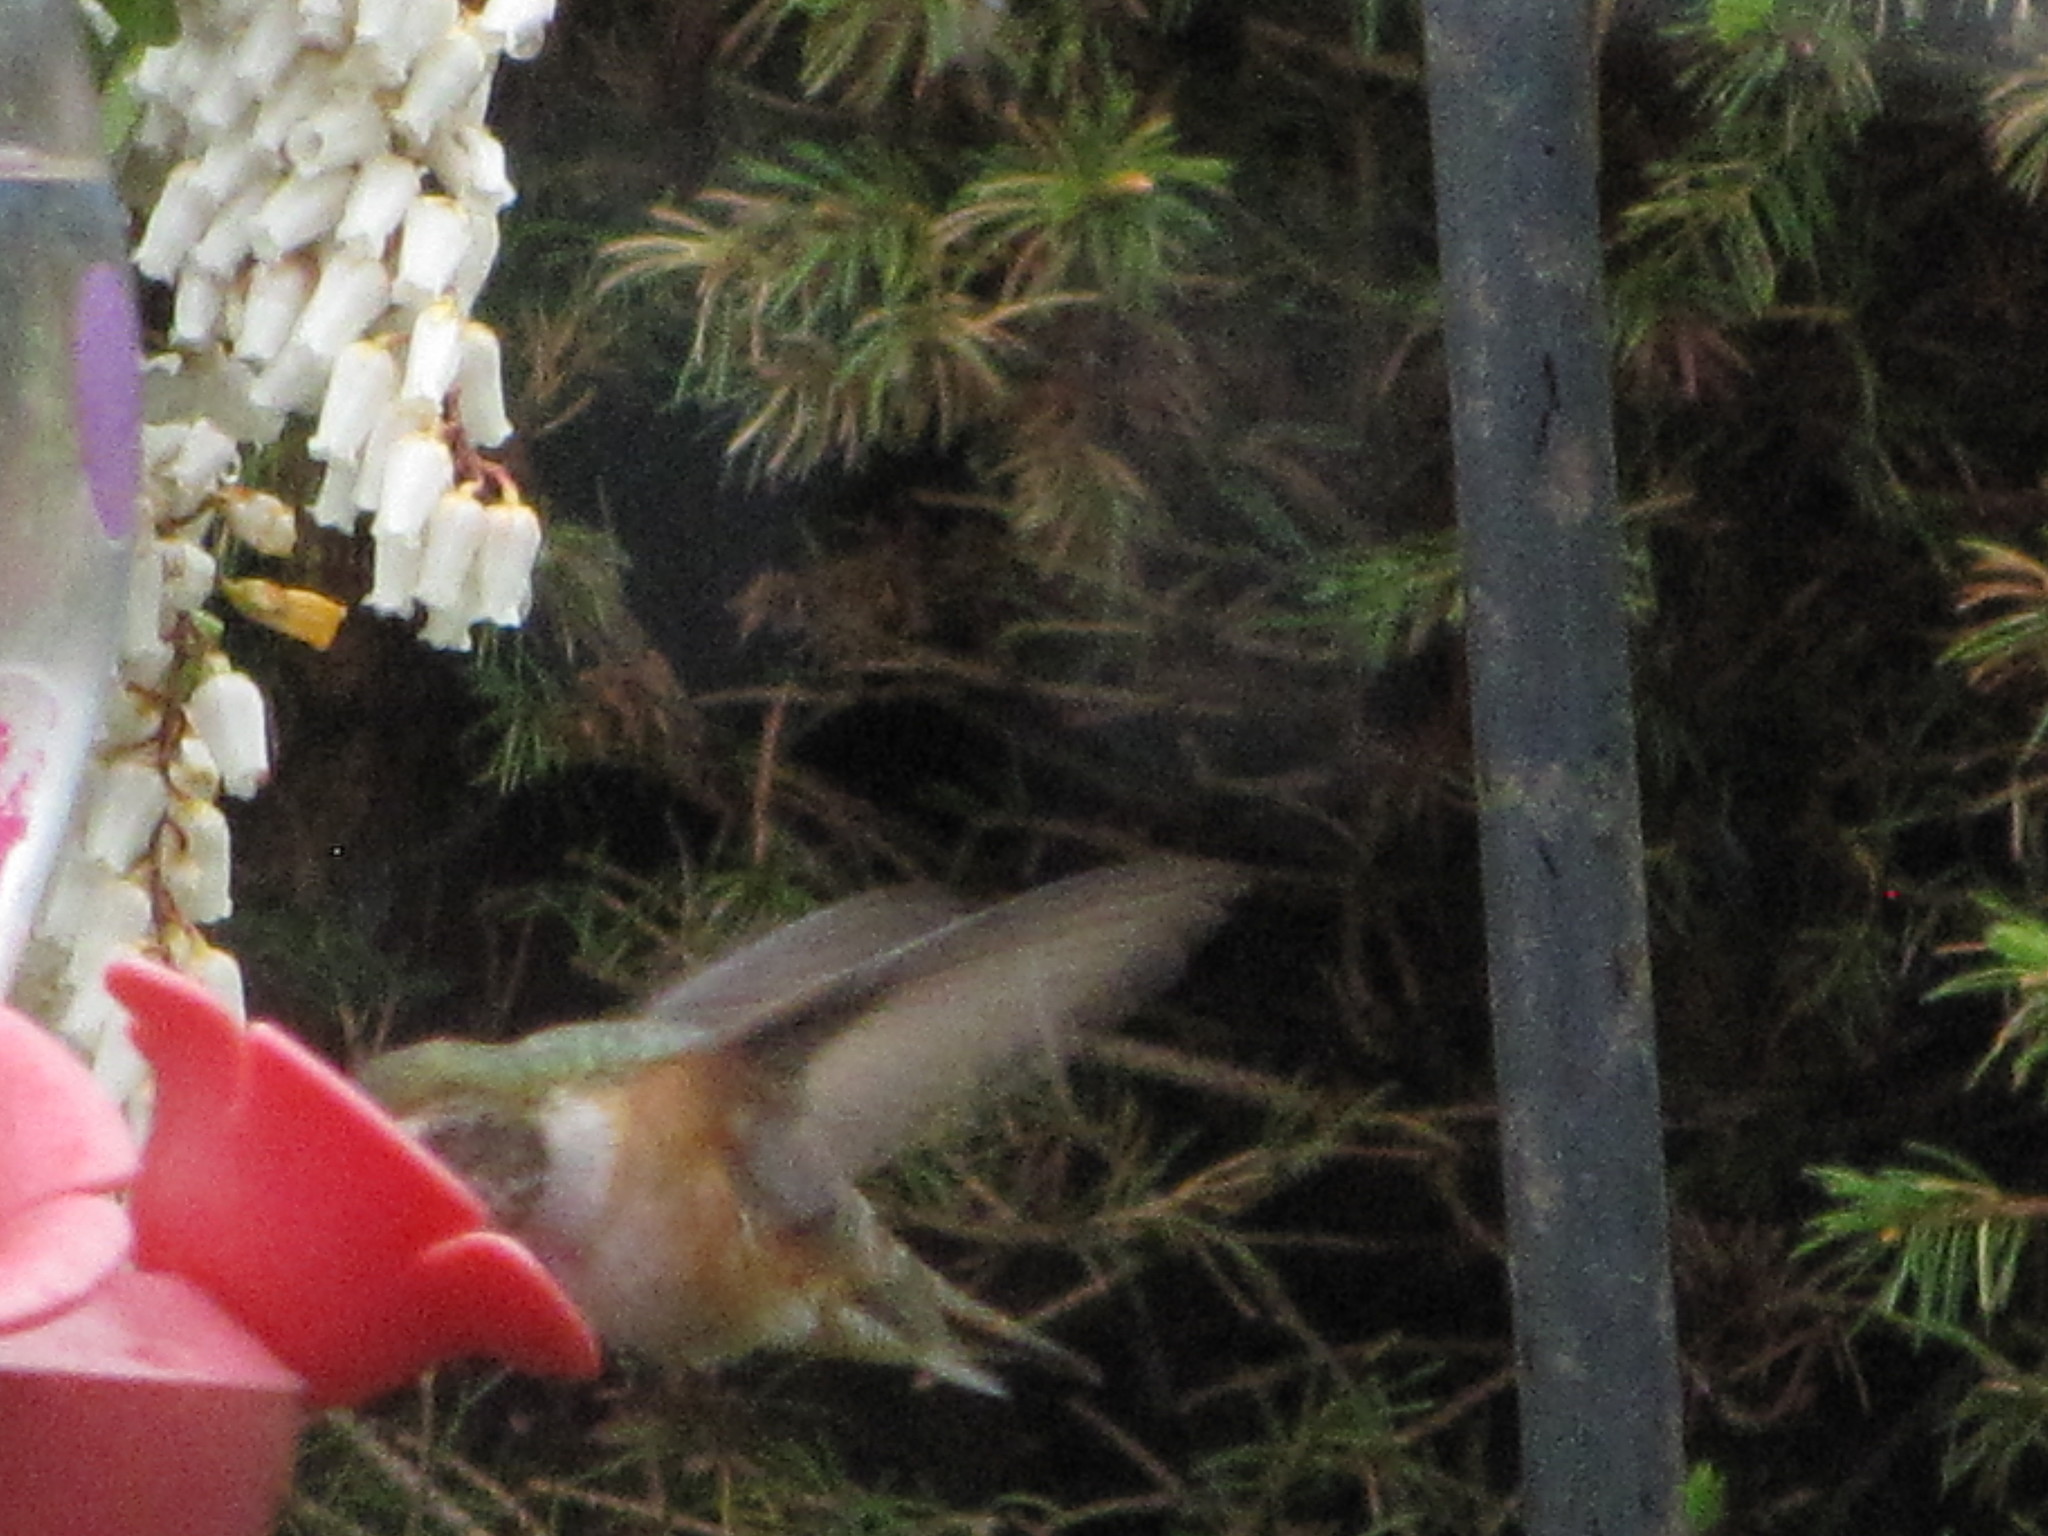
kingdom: Animalia
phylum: Chordata
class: Aves
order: Apodiformes
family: Trochilidae
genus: Selasphorus
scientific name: Selasphorus rufus
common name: Rufous hummingbird
